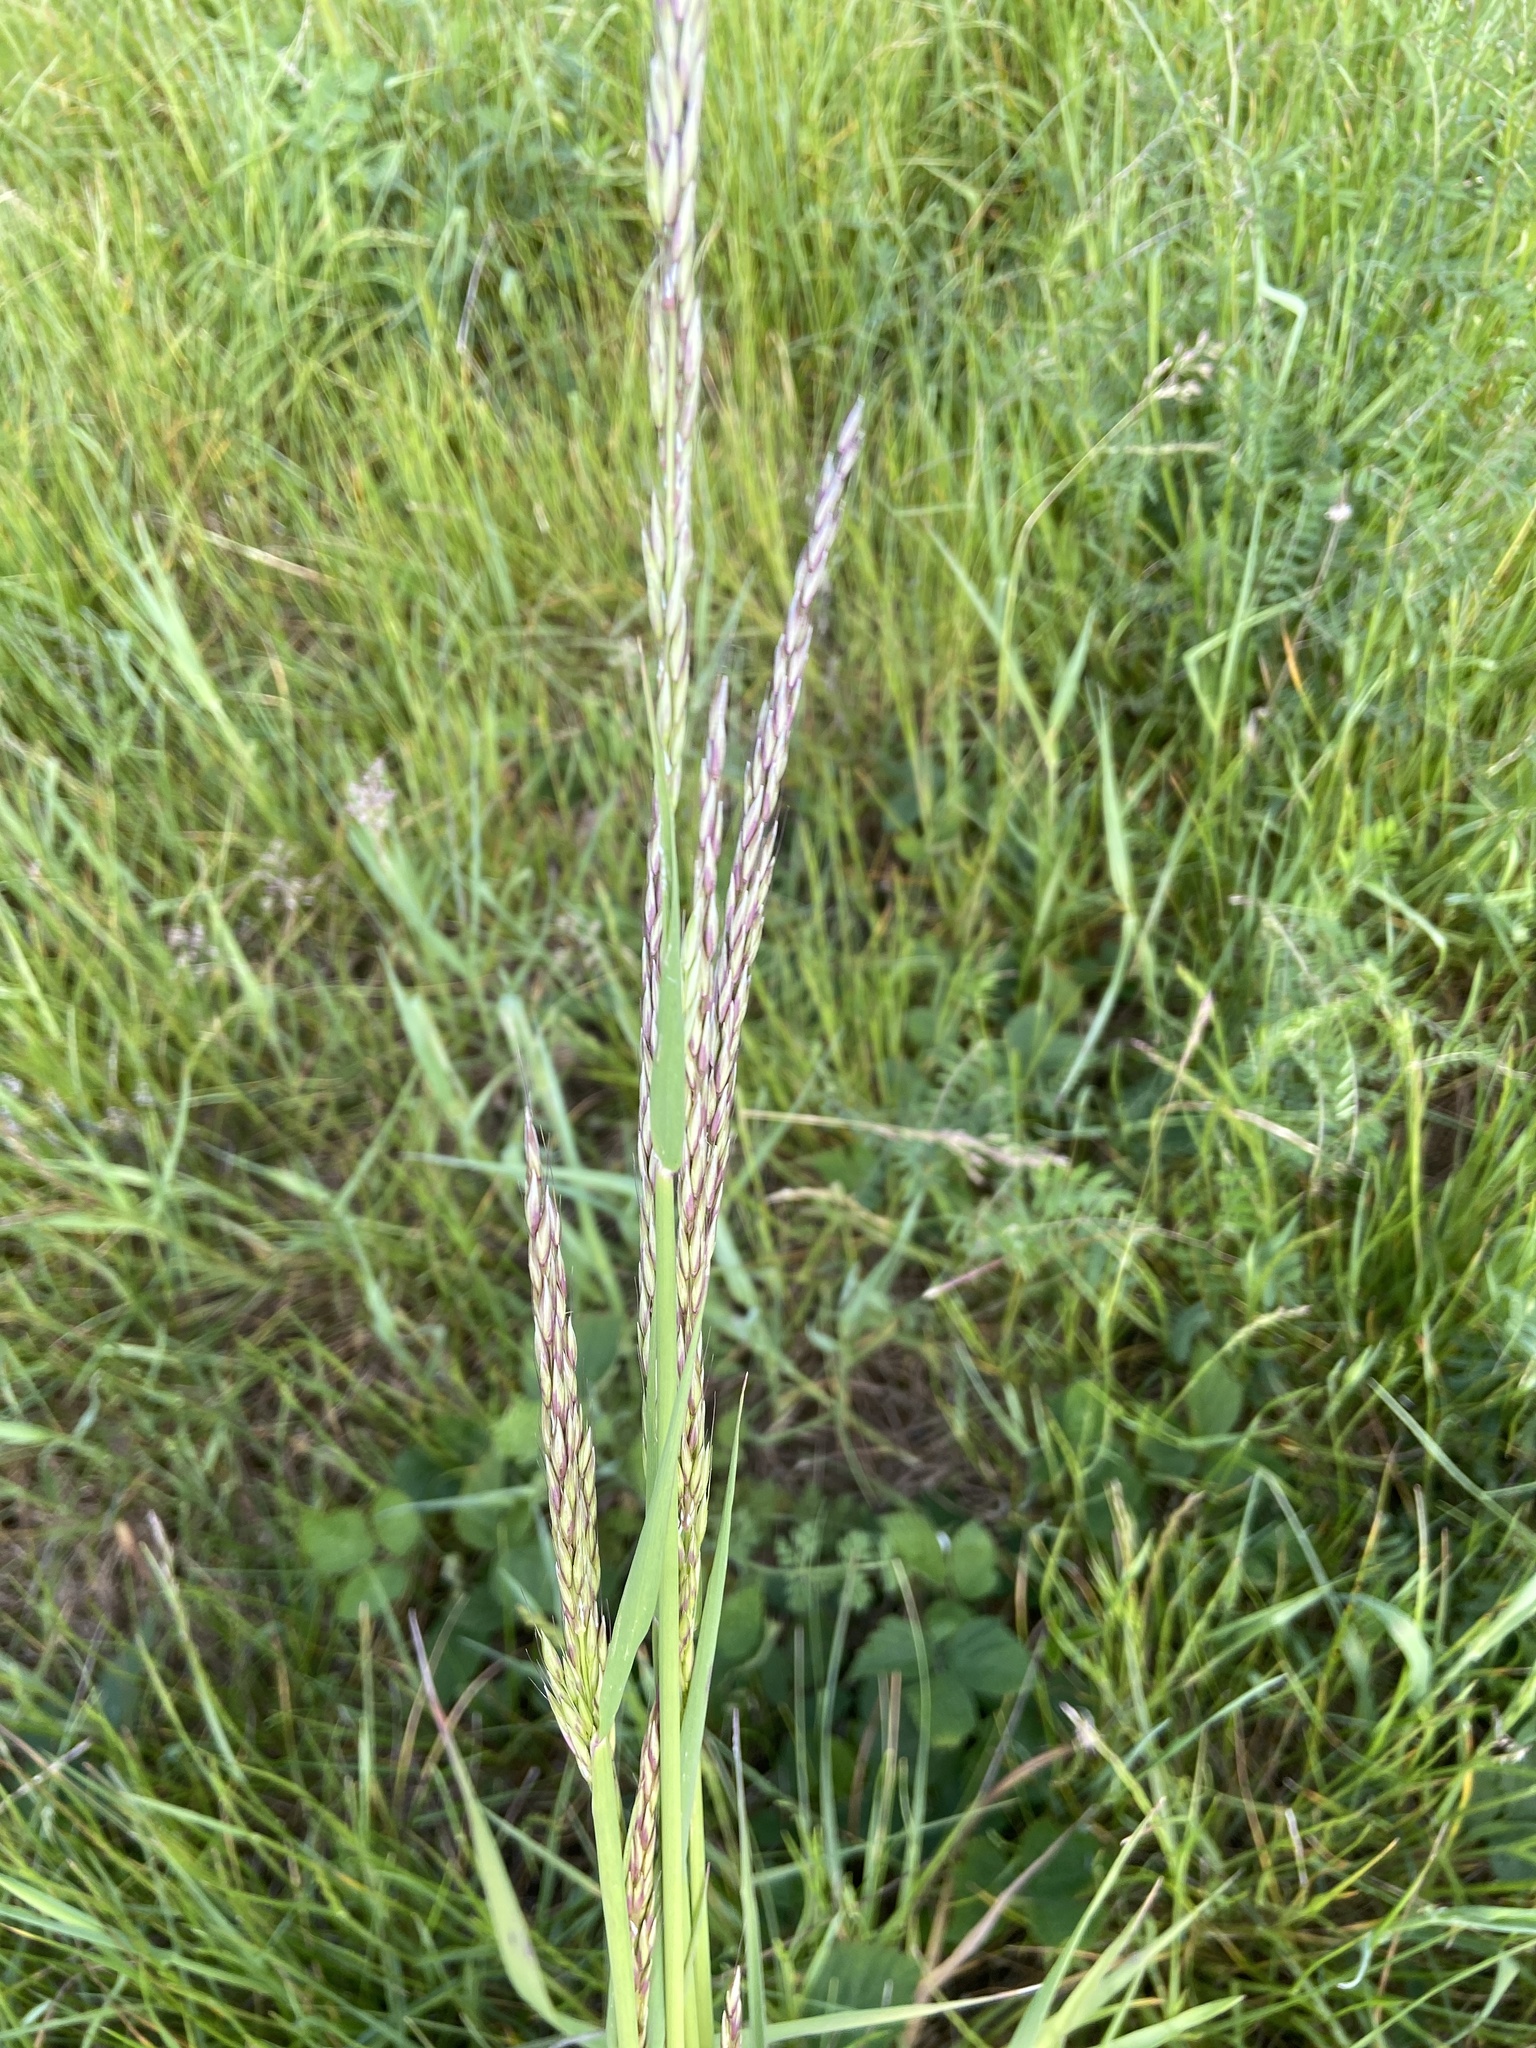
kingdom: Plantae
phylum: Tracheophyta
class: Liliopsida
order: Poales
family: Poaceae
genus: Arrhenatherum
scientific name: Arrhenatherum elatius
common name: Tall oatgrass
